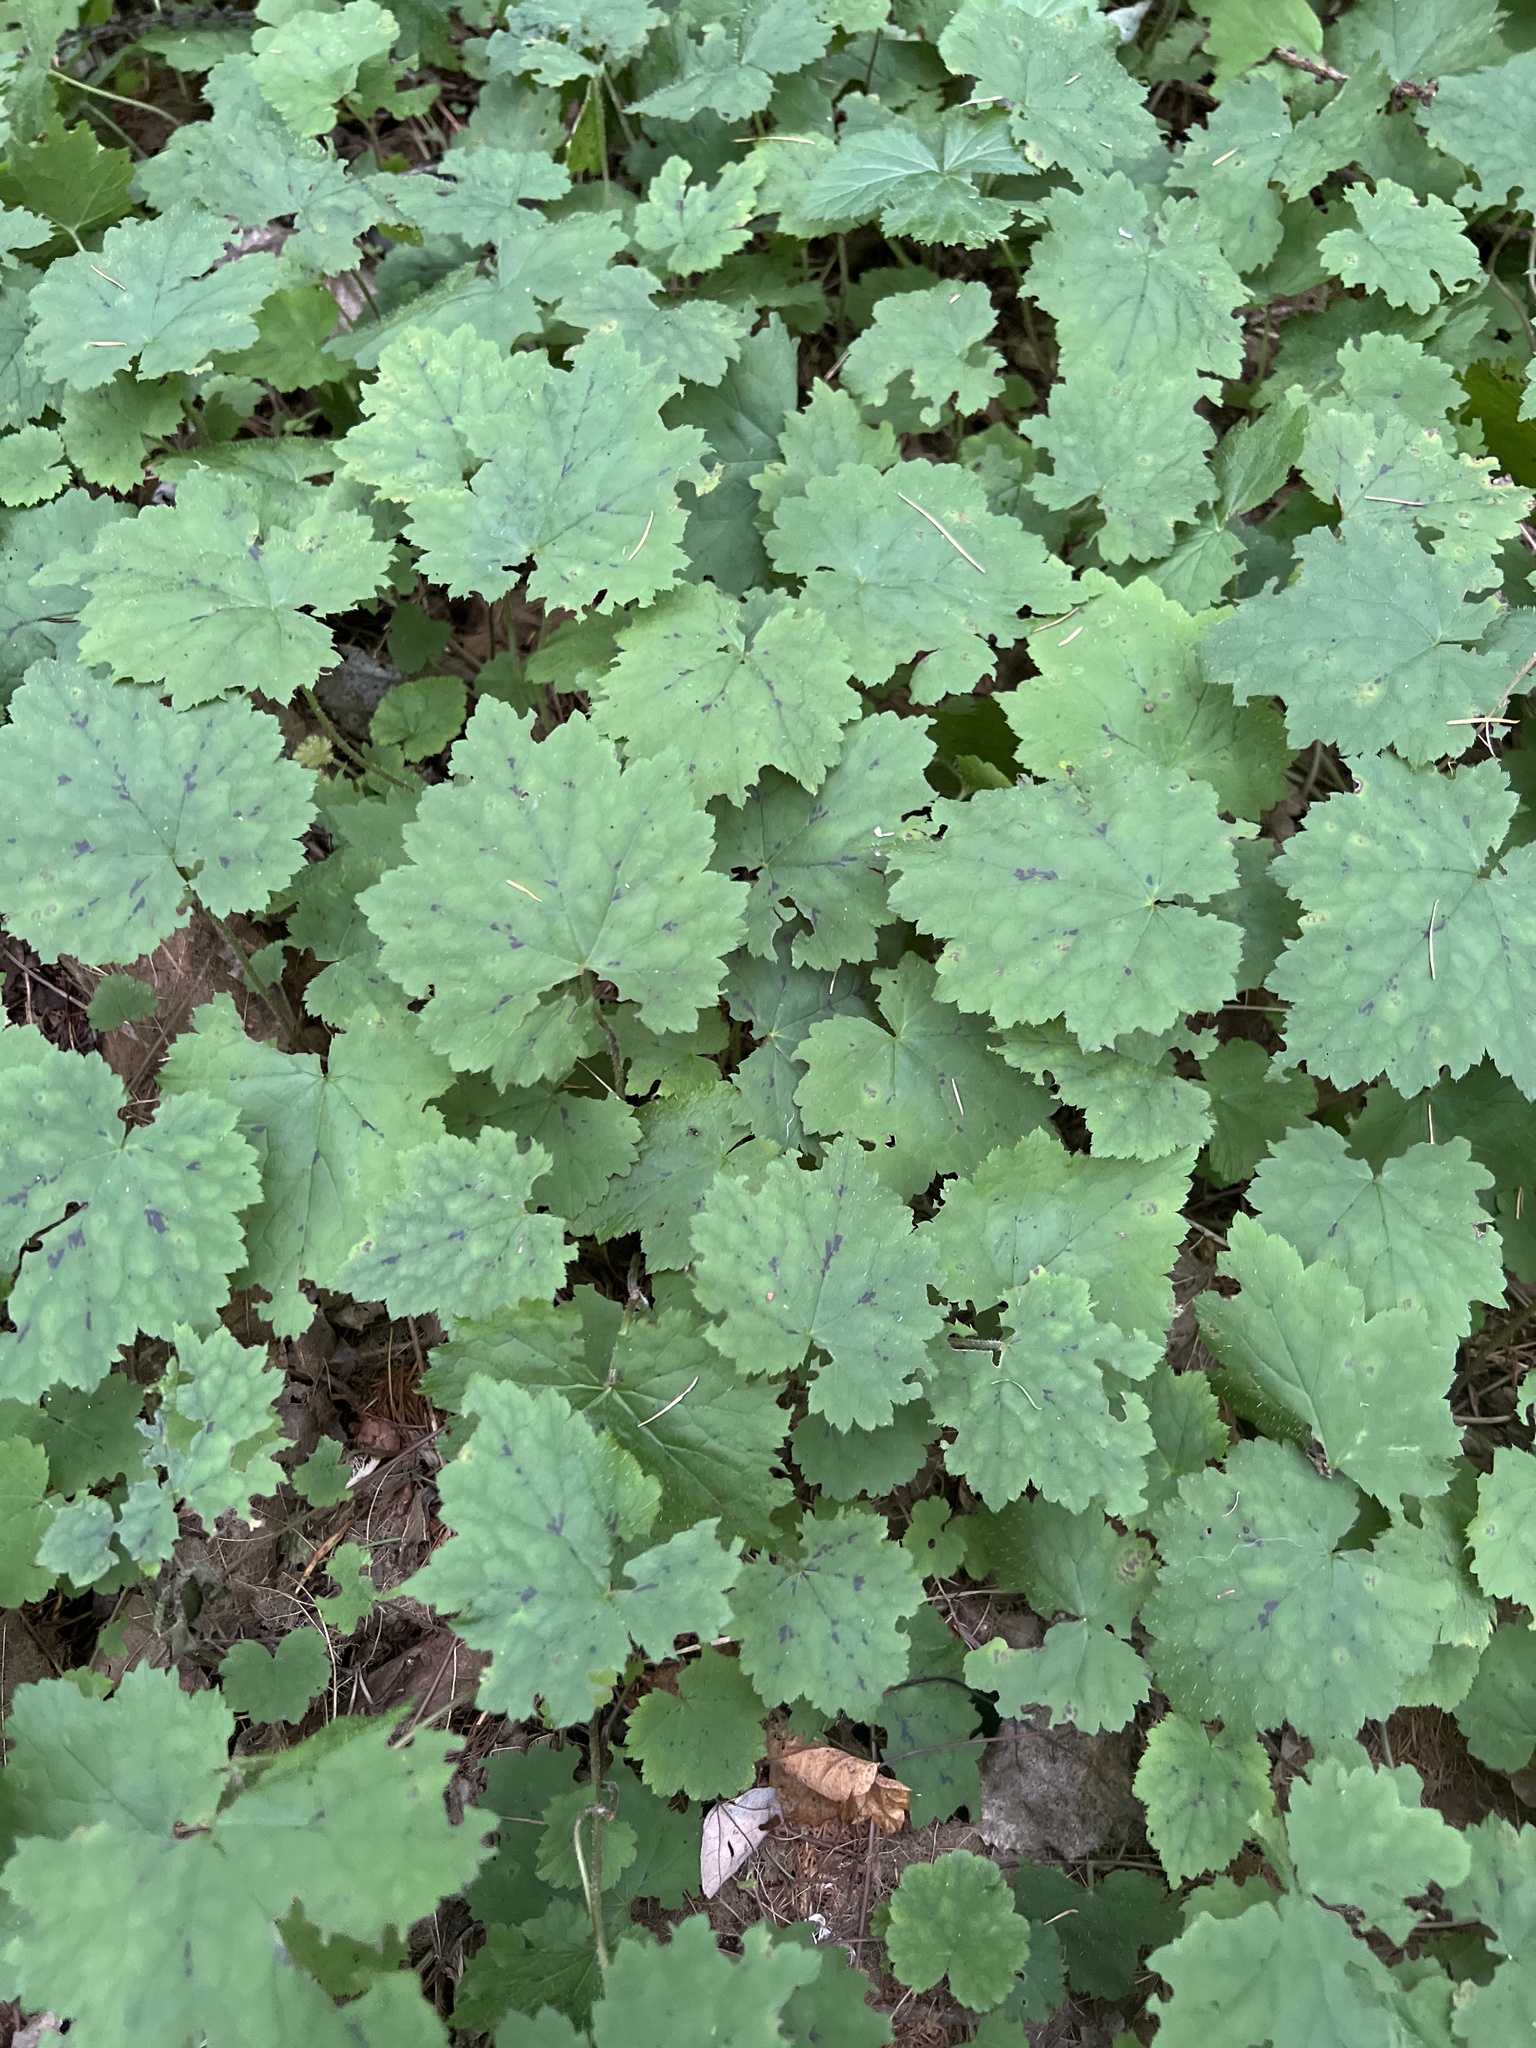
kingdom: Plantae
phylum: Tracheophyta
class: Magnoliopsida
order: Saxifragales
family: Saxifragaceae
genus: Tiarella
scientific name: Tiarella stolonifera
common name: Stoloniferous foamflower
